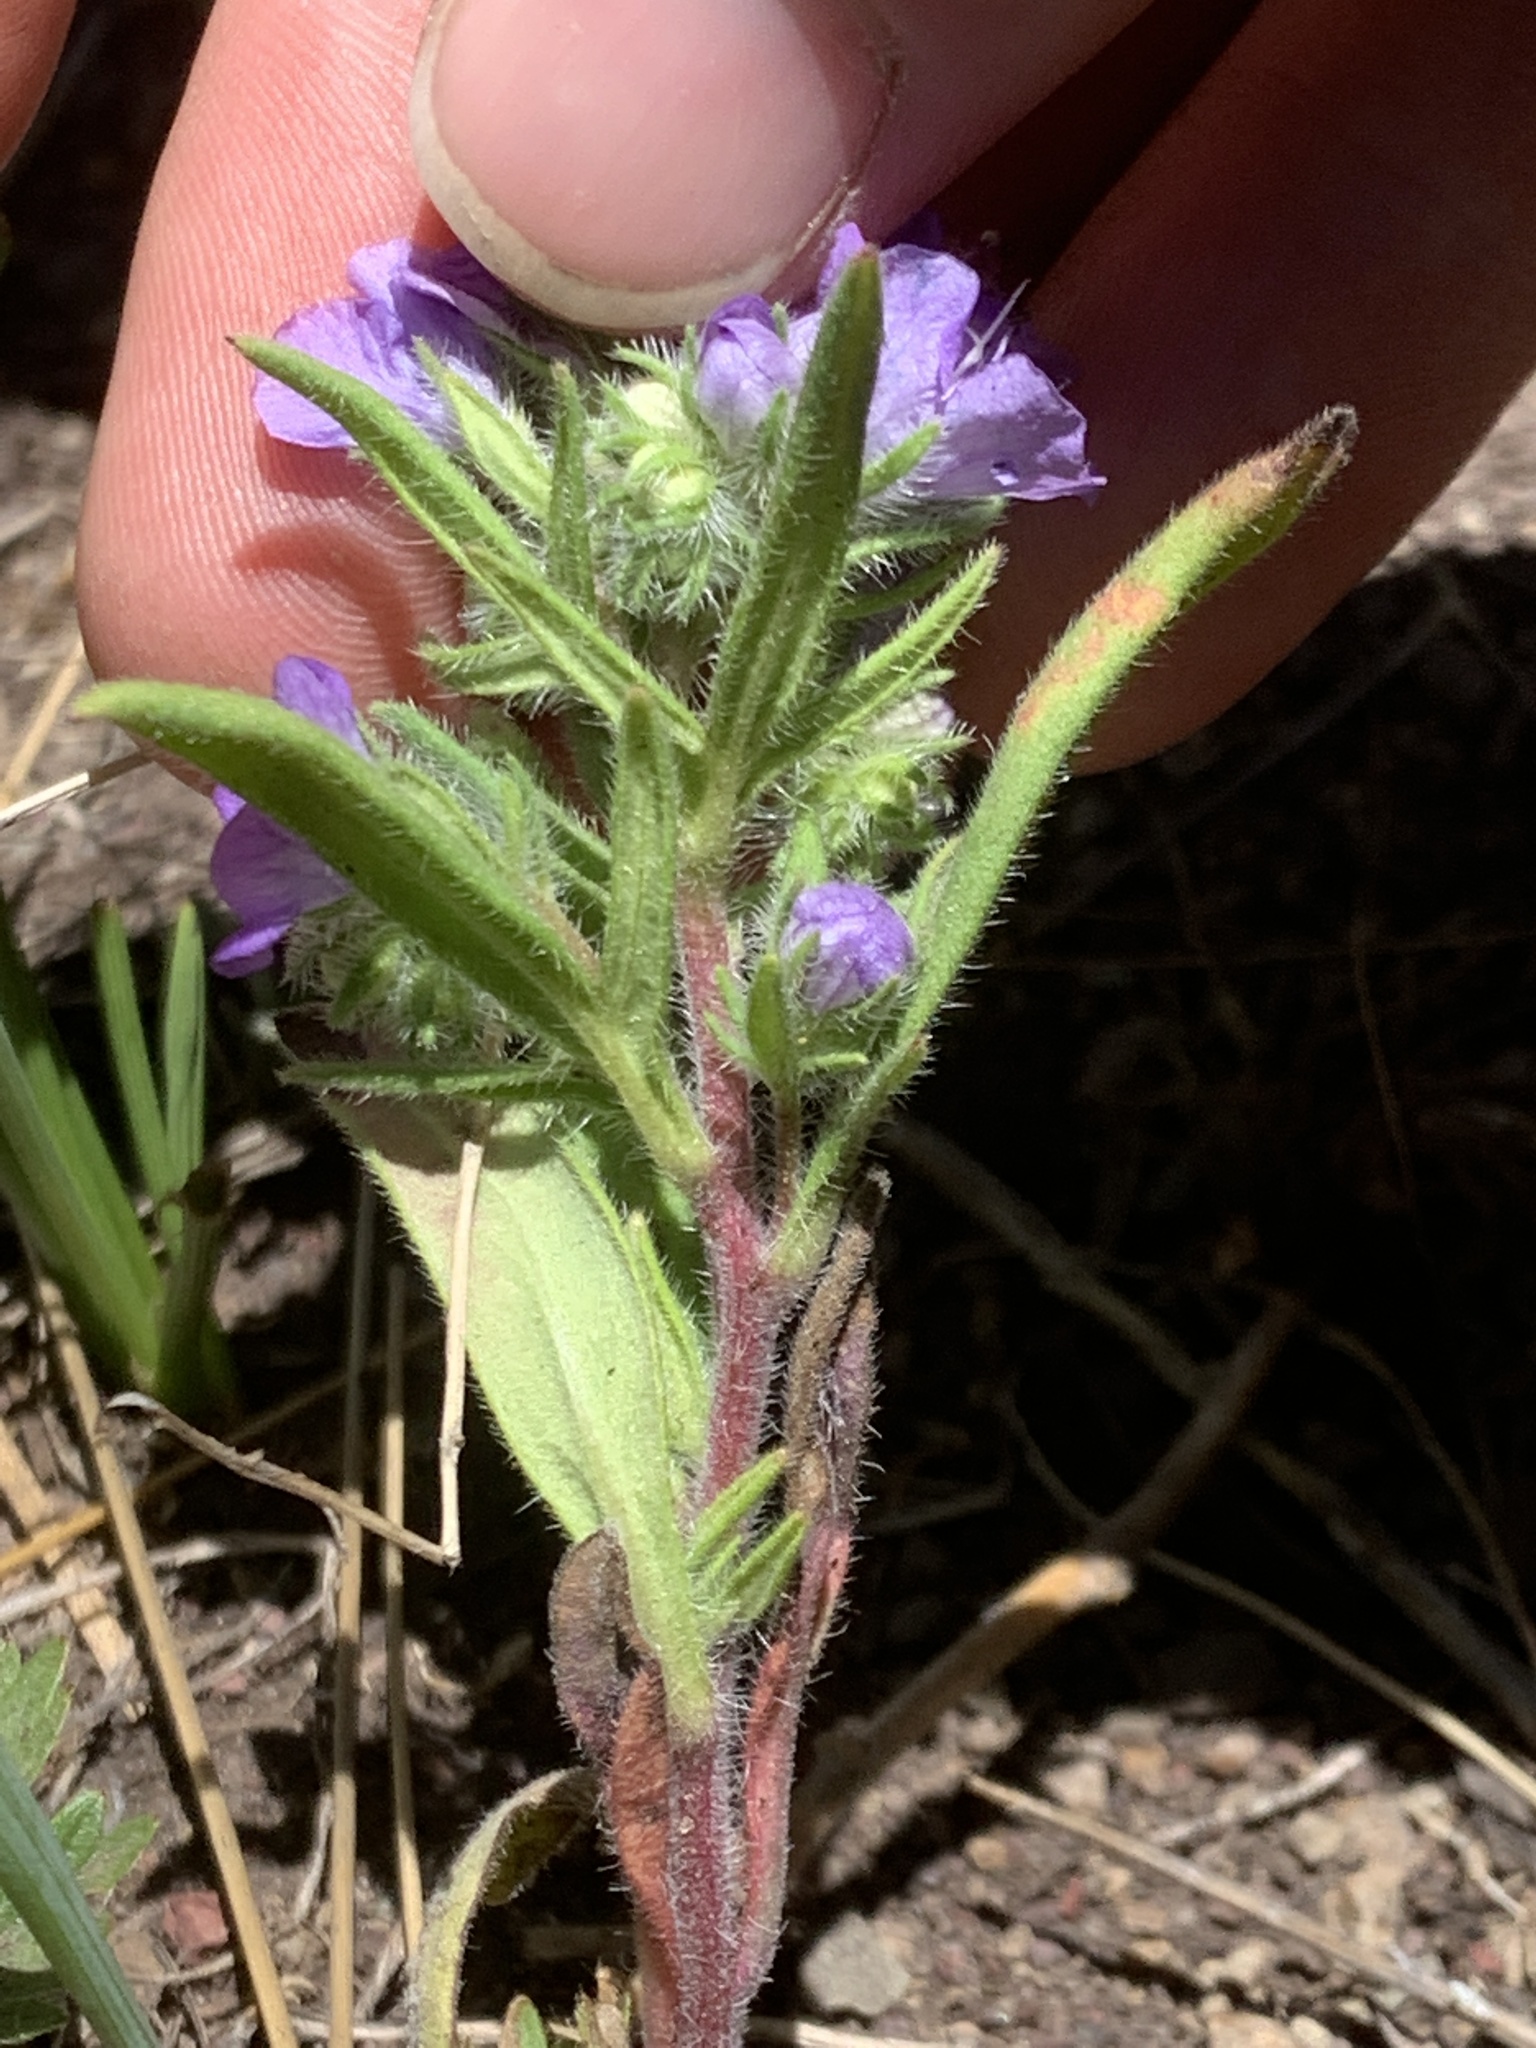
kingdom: Plantae
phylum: Tracheophyta
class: Magnoliopsida
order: Boraginales
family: Hydrophyllaceae
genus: Phacelia
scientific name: Phacelia linearis
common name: Linear-leaved phacelia
